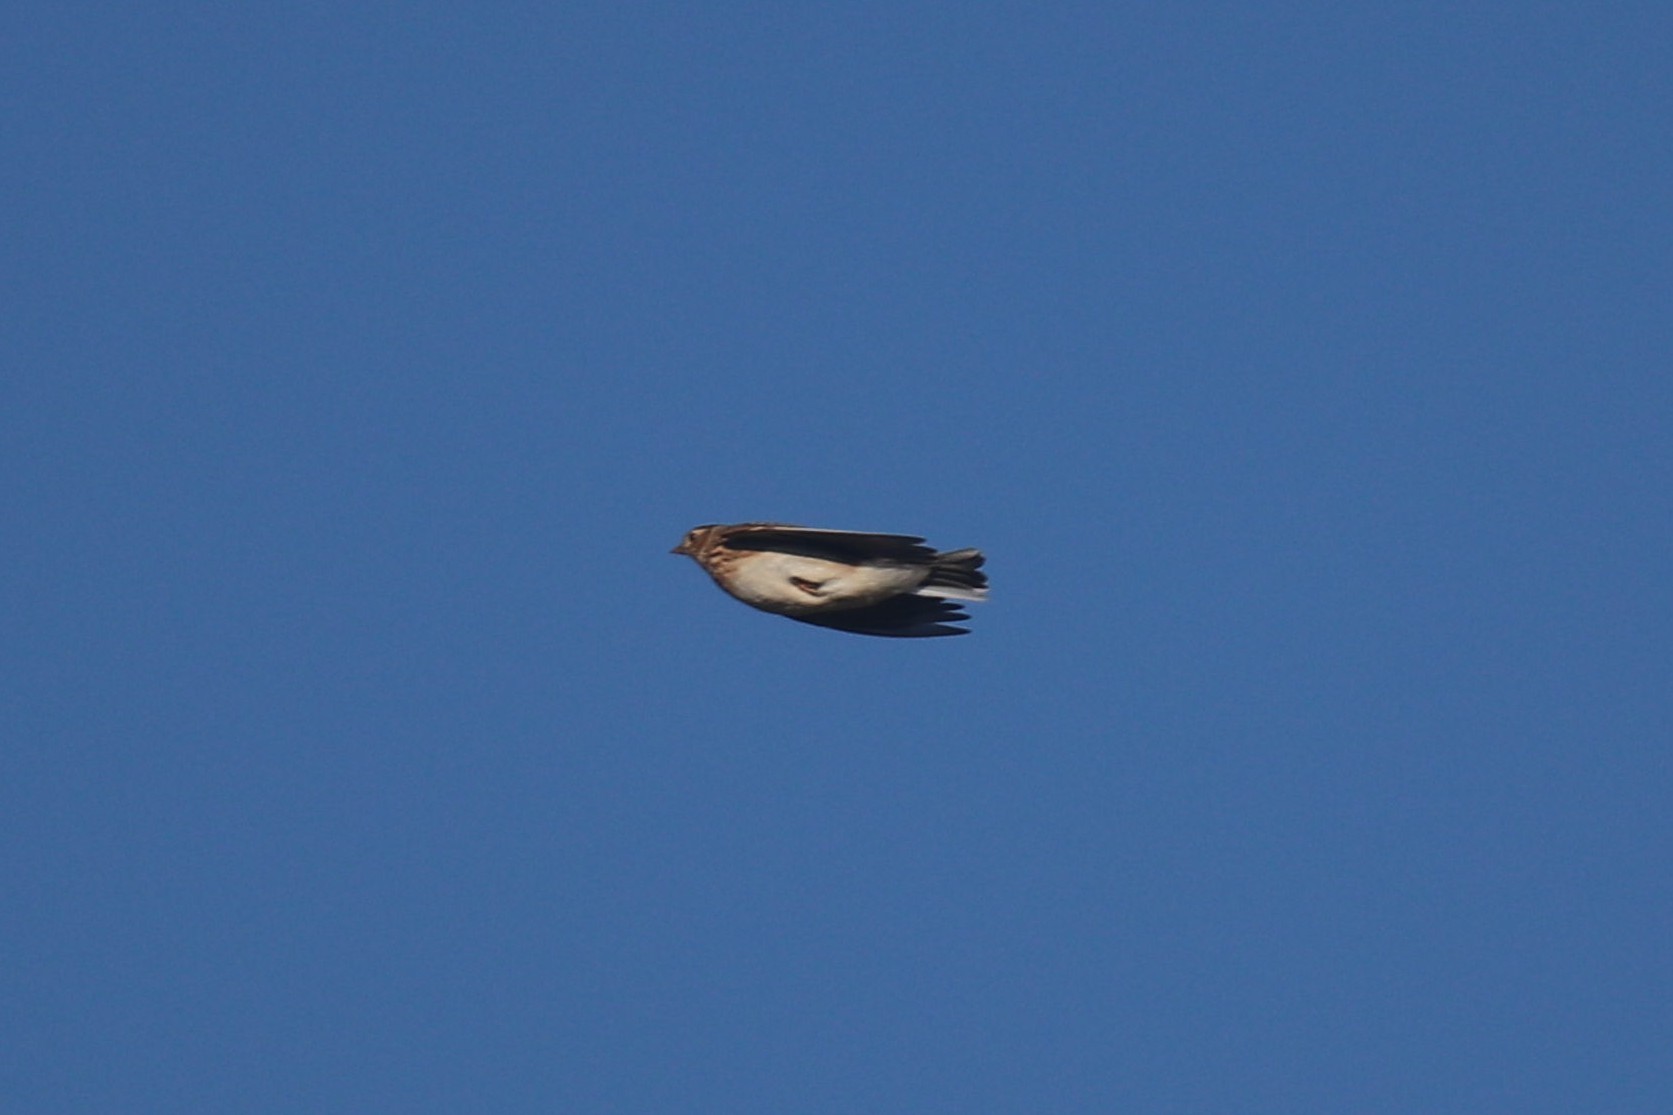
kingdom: Animalia
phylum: Chordata
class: Aves
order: Passeriformes
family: Alaudidae
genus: Alauda
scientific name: Alauda arvensis
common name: Eurasian skylark
